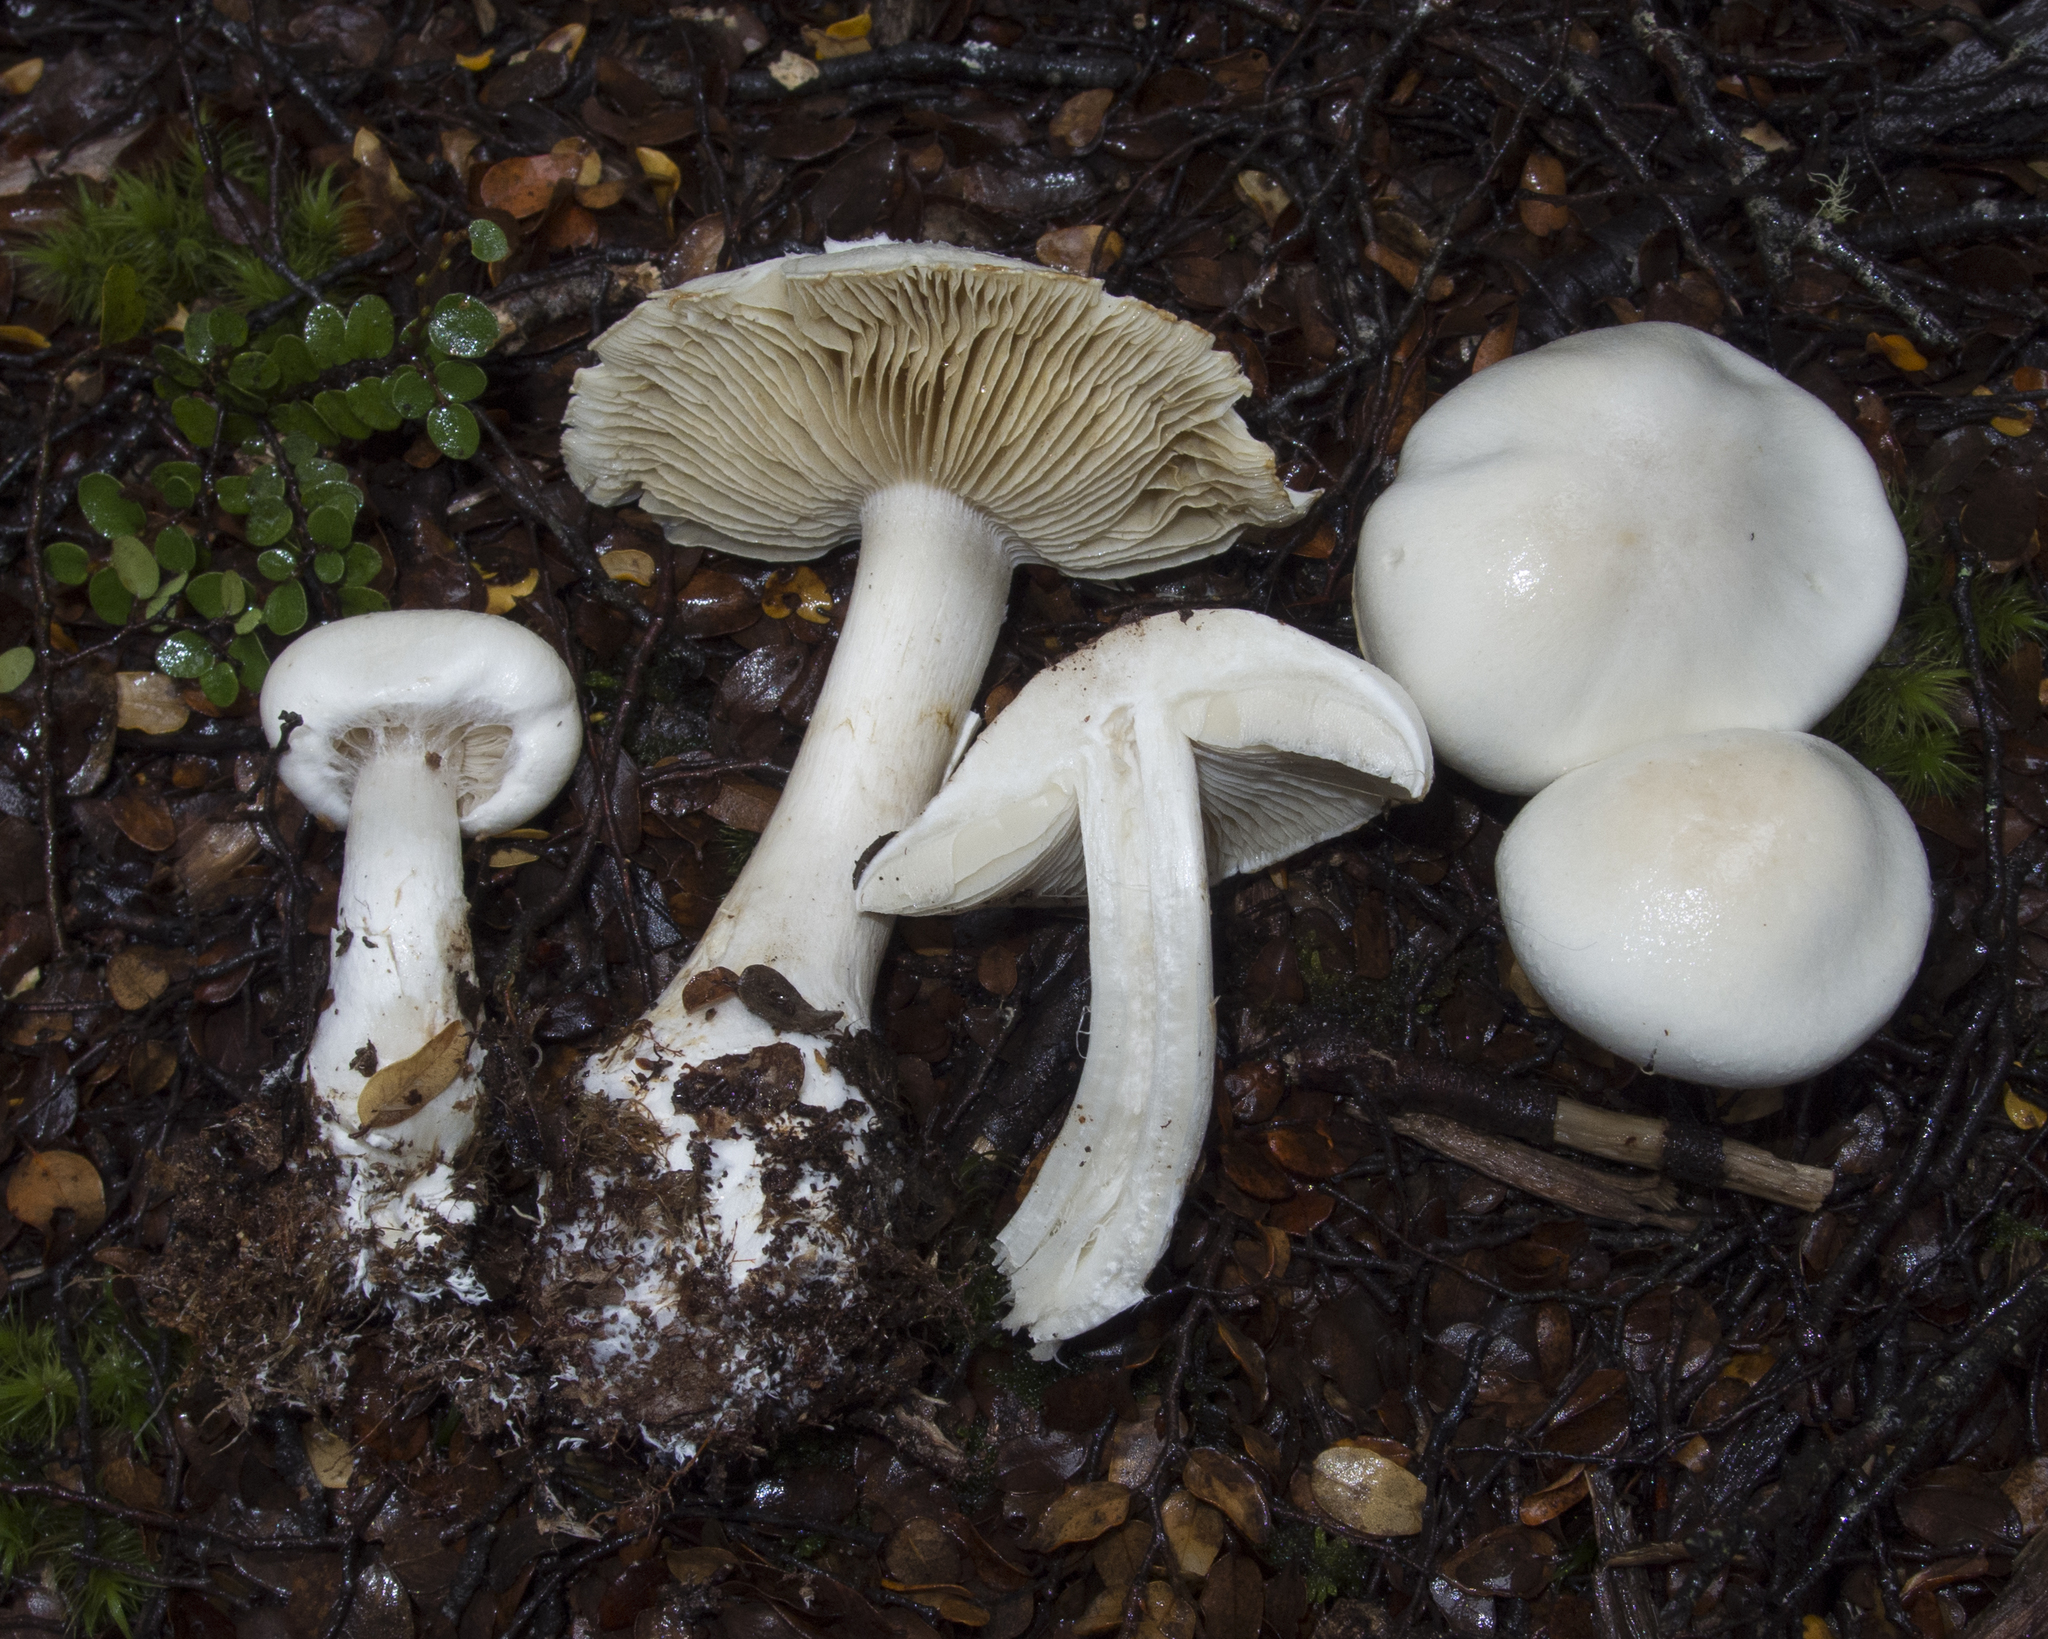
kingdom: Fungi
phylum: Basidiomycota
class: Agaricomycetes
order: Agaricales
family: Cortinariaceae
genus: Thaxterogaster
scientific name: Thaxterogaster mariae
